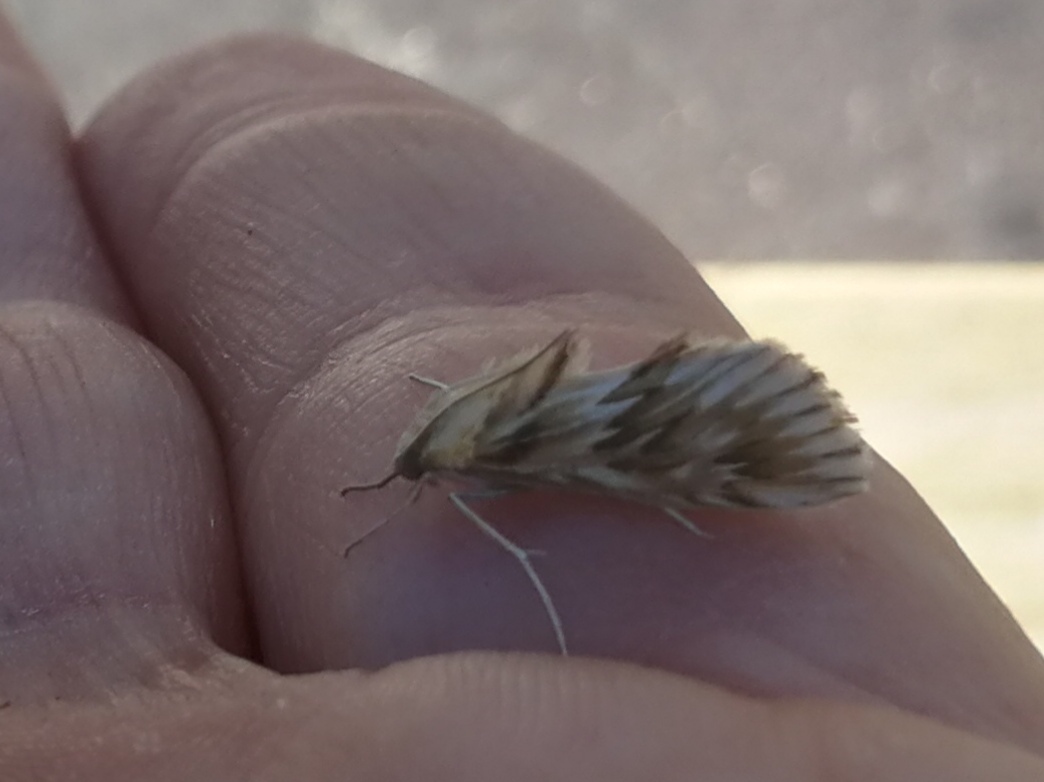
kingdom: Animalia
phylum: Arthropoda
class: Insecta
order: Lepidoptera
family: Crambidae
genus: Cynaeda
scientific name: Cynaeda dentalis
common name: Starry pearl
